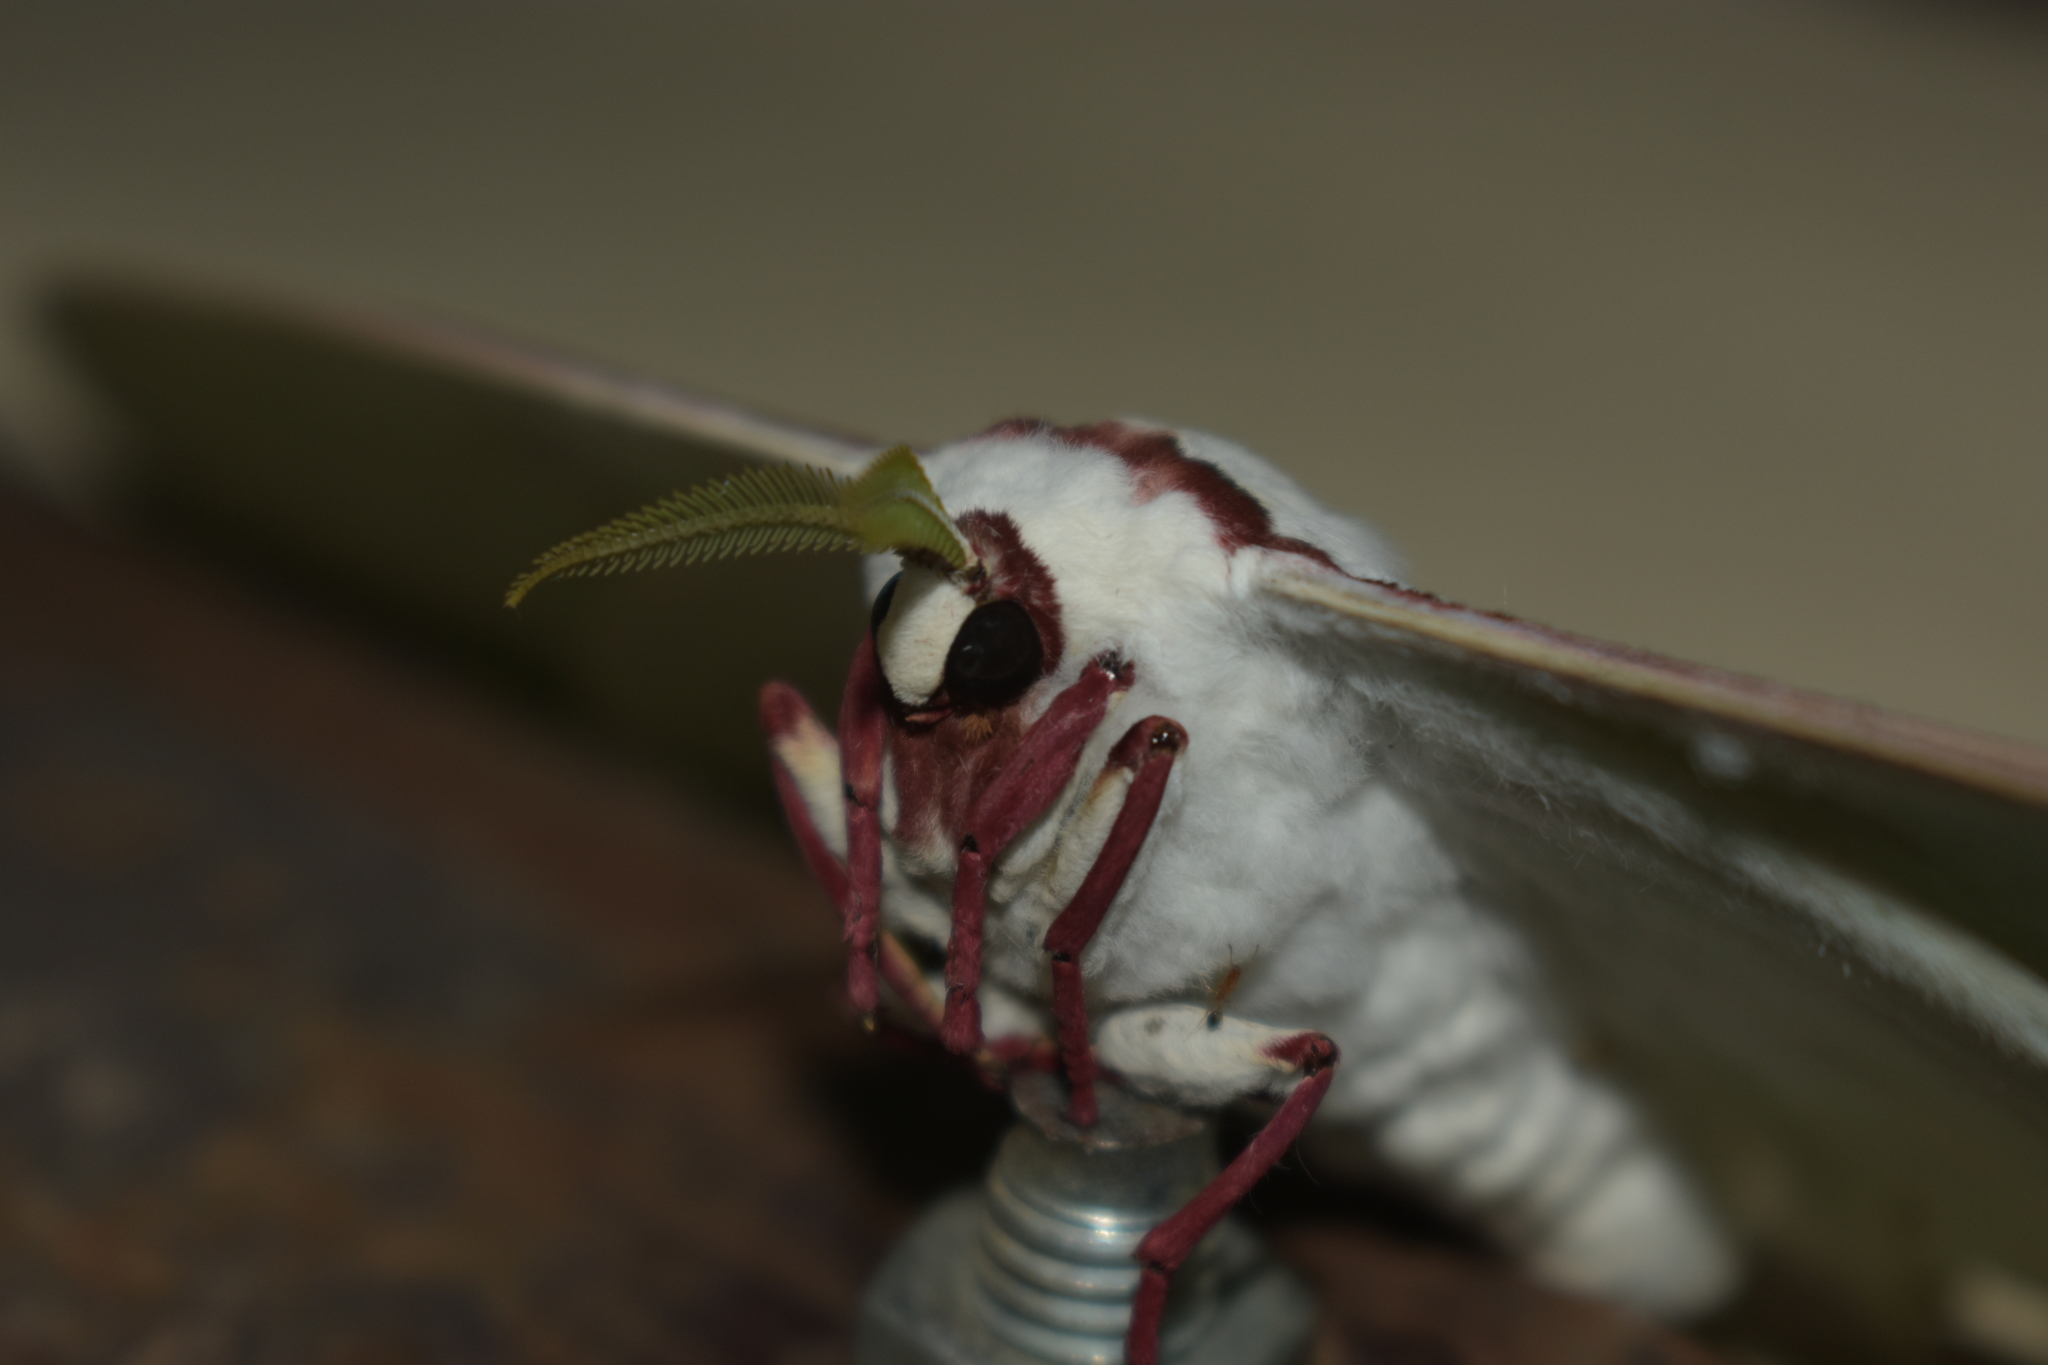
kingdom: Animalia
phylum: Arthropoda
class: Insecta
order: Lepidoptera
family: Saturniidae
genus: Actias
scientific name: Actias selene
